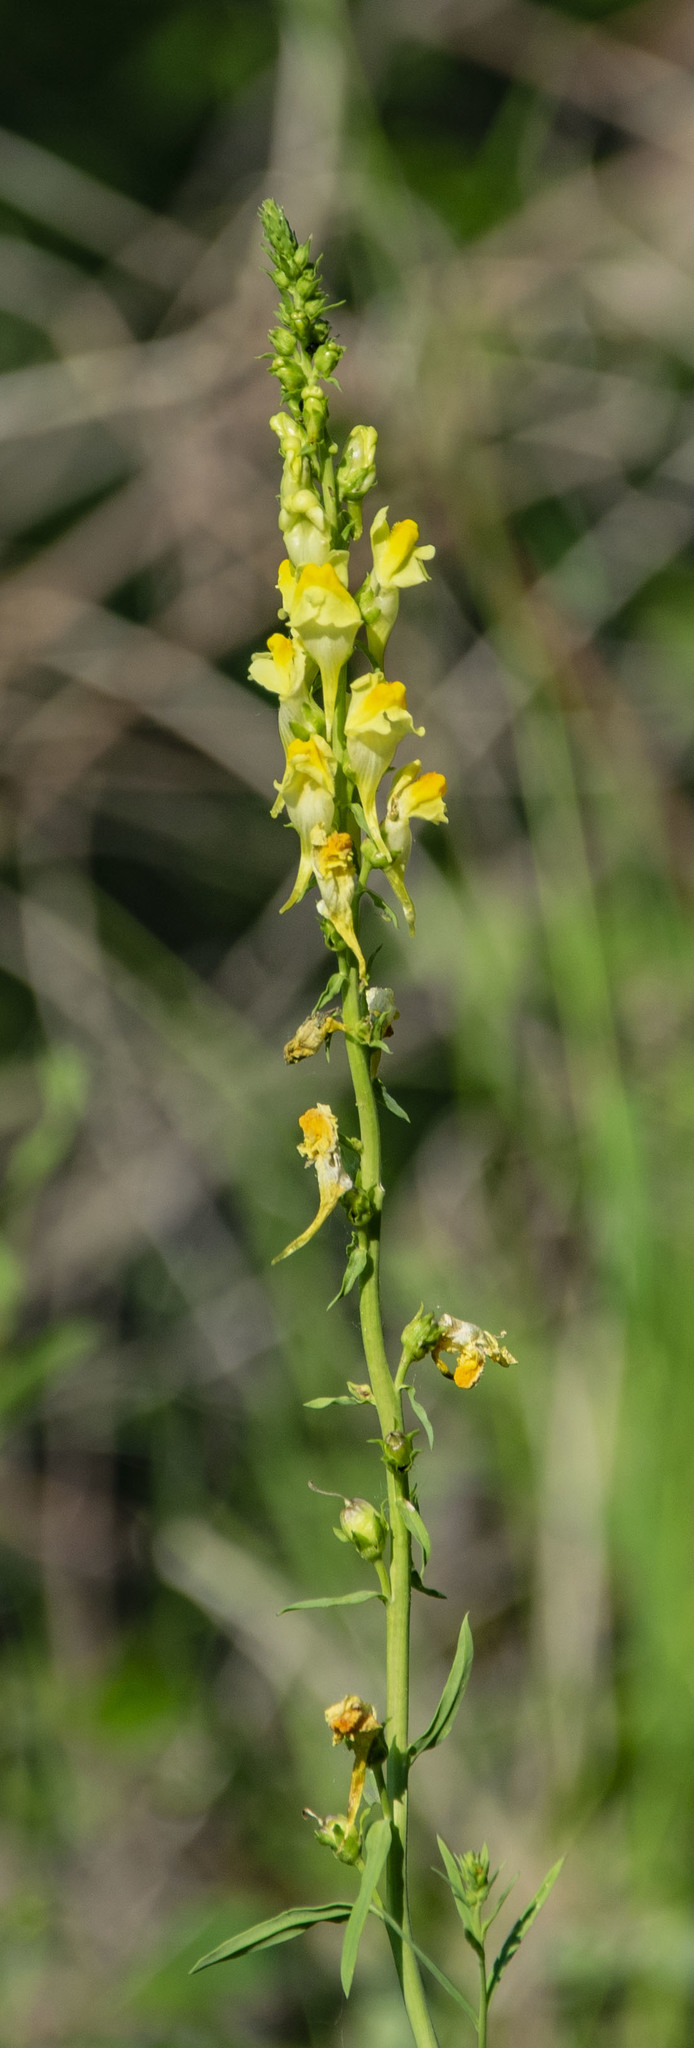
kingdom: Plantae
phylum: Tracheophyta
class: Magnoliopsida
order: Lamiales
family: Plantaginaceae
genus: Linaria
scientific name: Linaria vulgaris
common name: Butter and eggs
